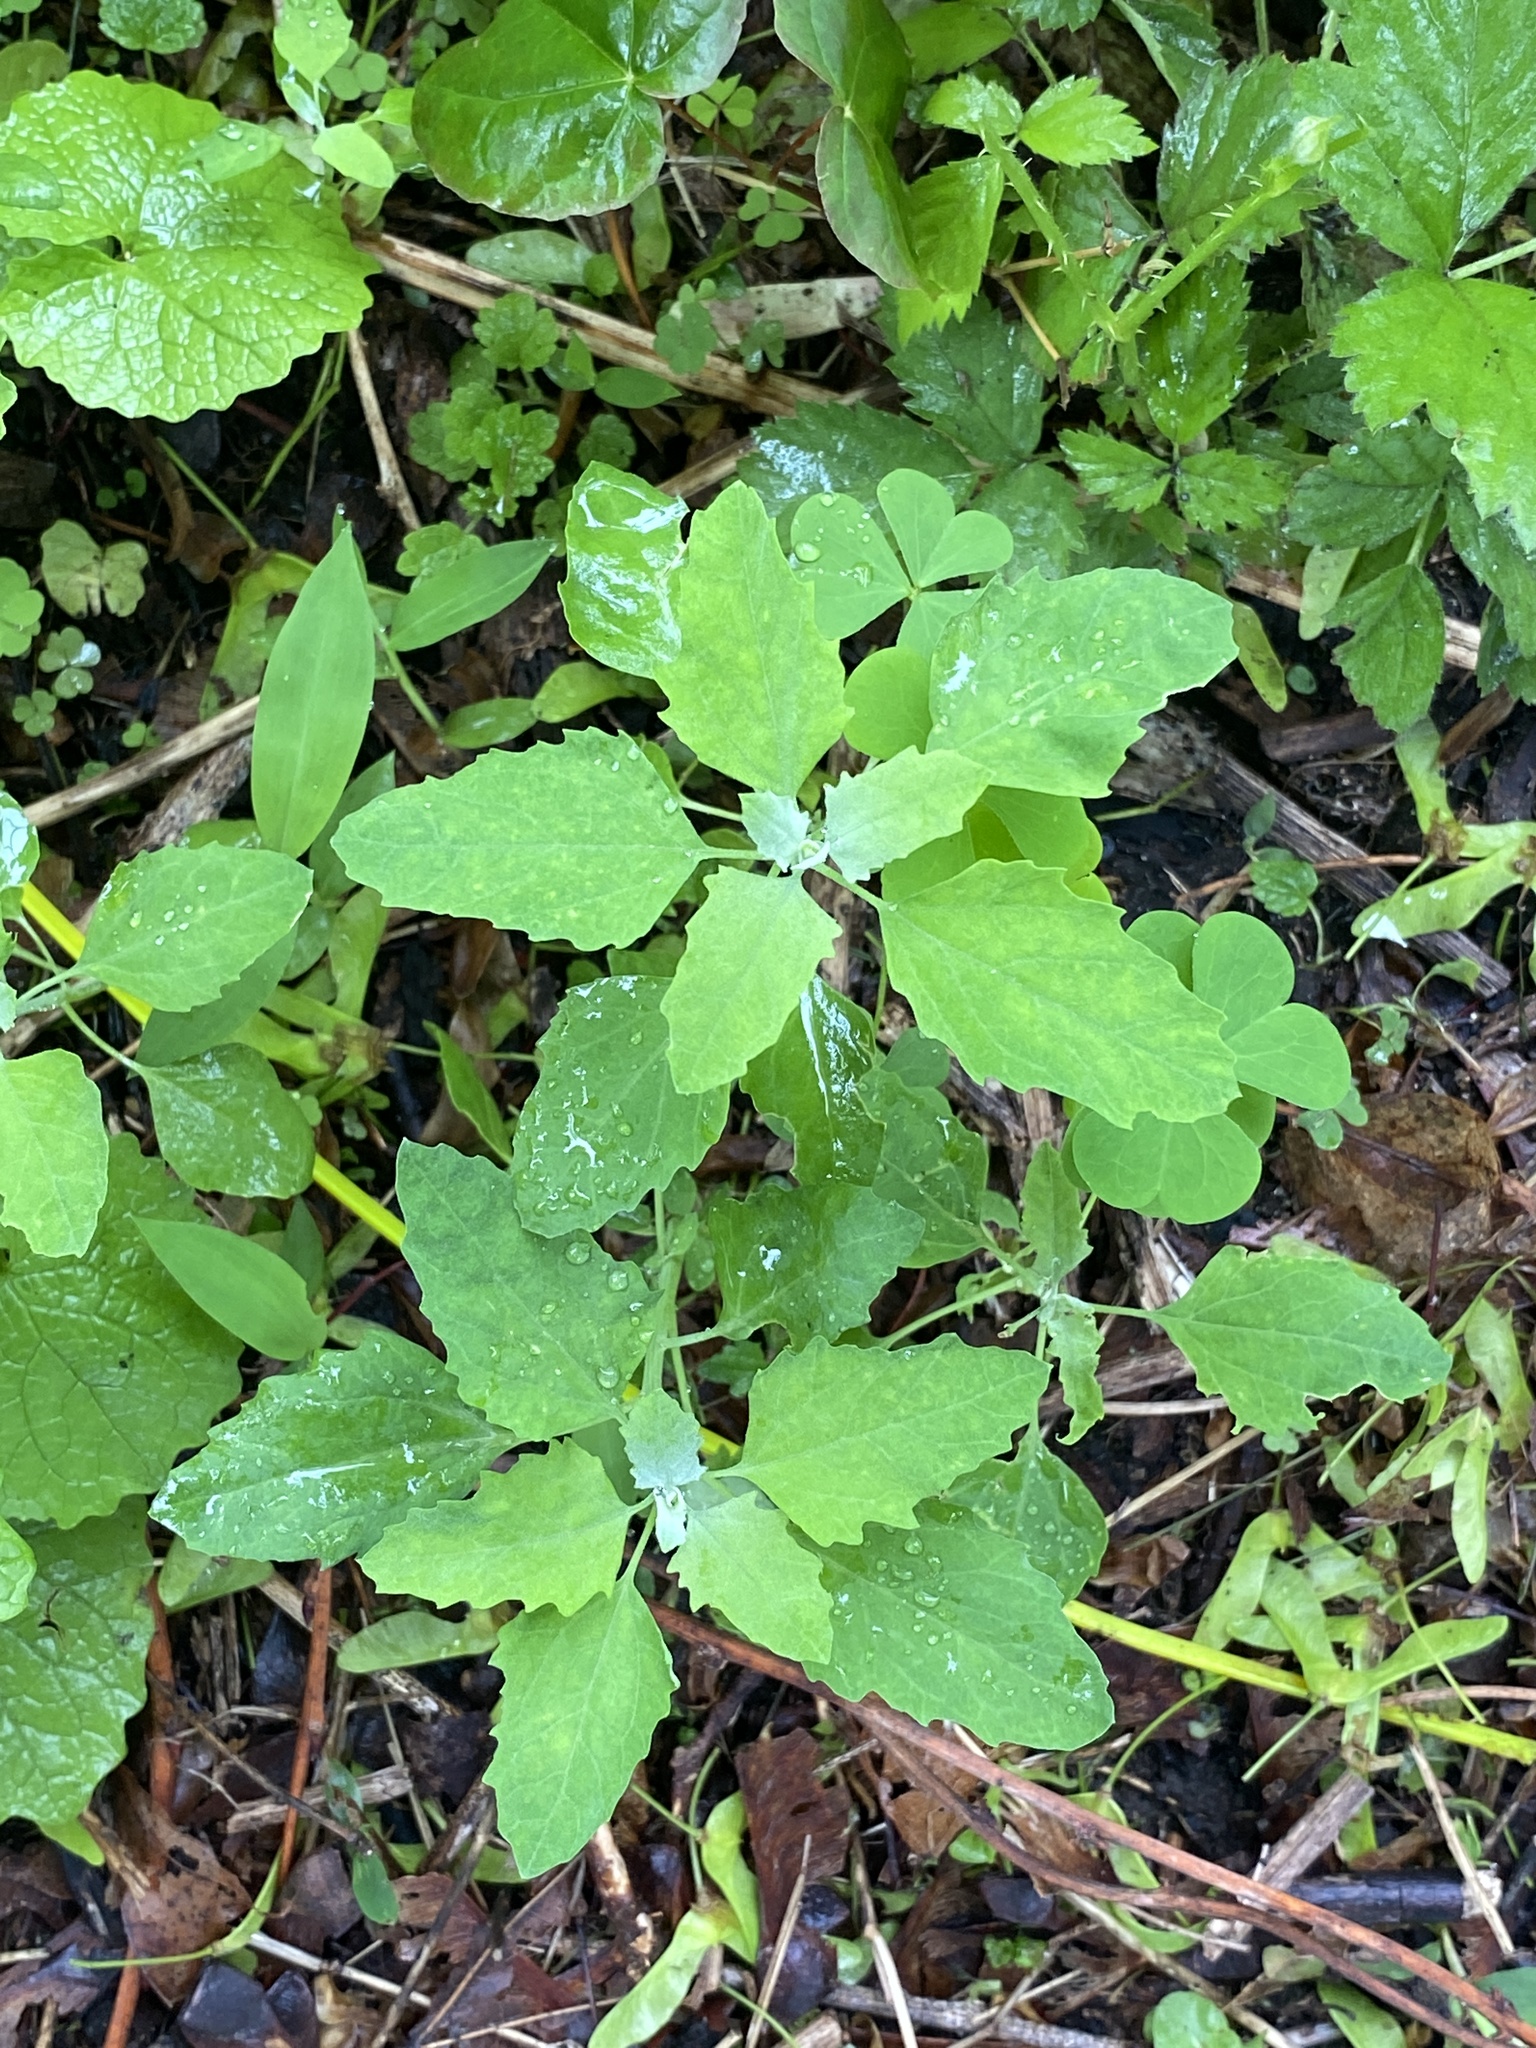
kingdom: Plantae
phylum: Tracheophyta
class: Magnoliopsida
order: Caryophyllales
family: Amaranthaceae
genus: Chenopodium
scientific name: Chenopodium album
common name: Fat-hen
